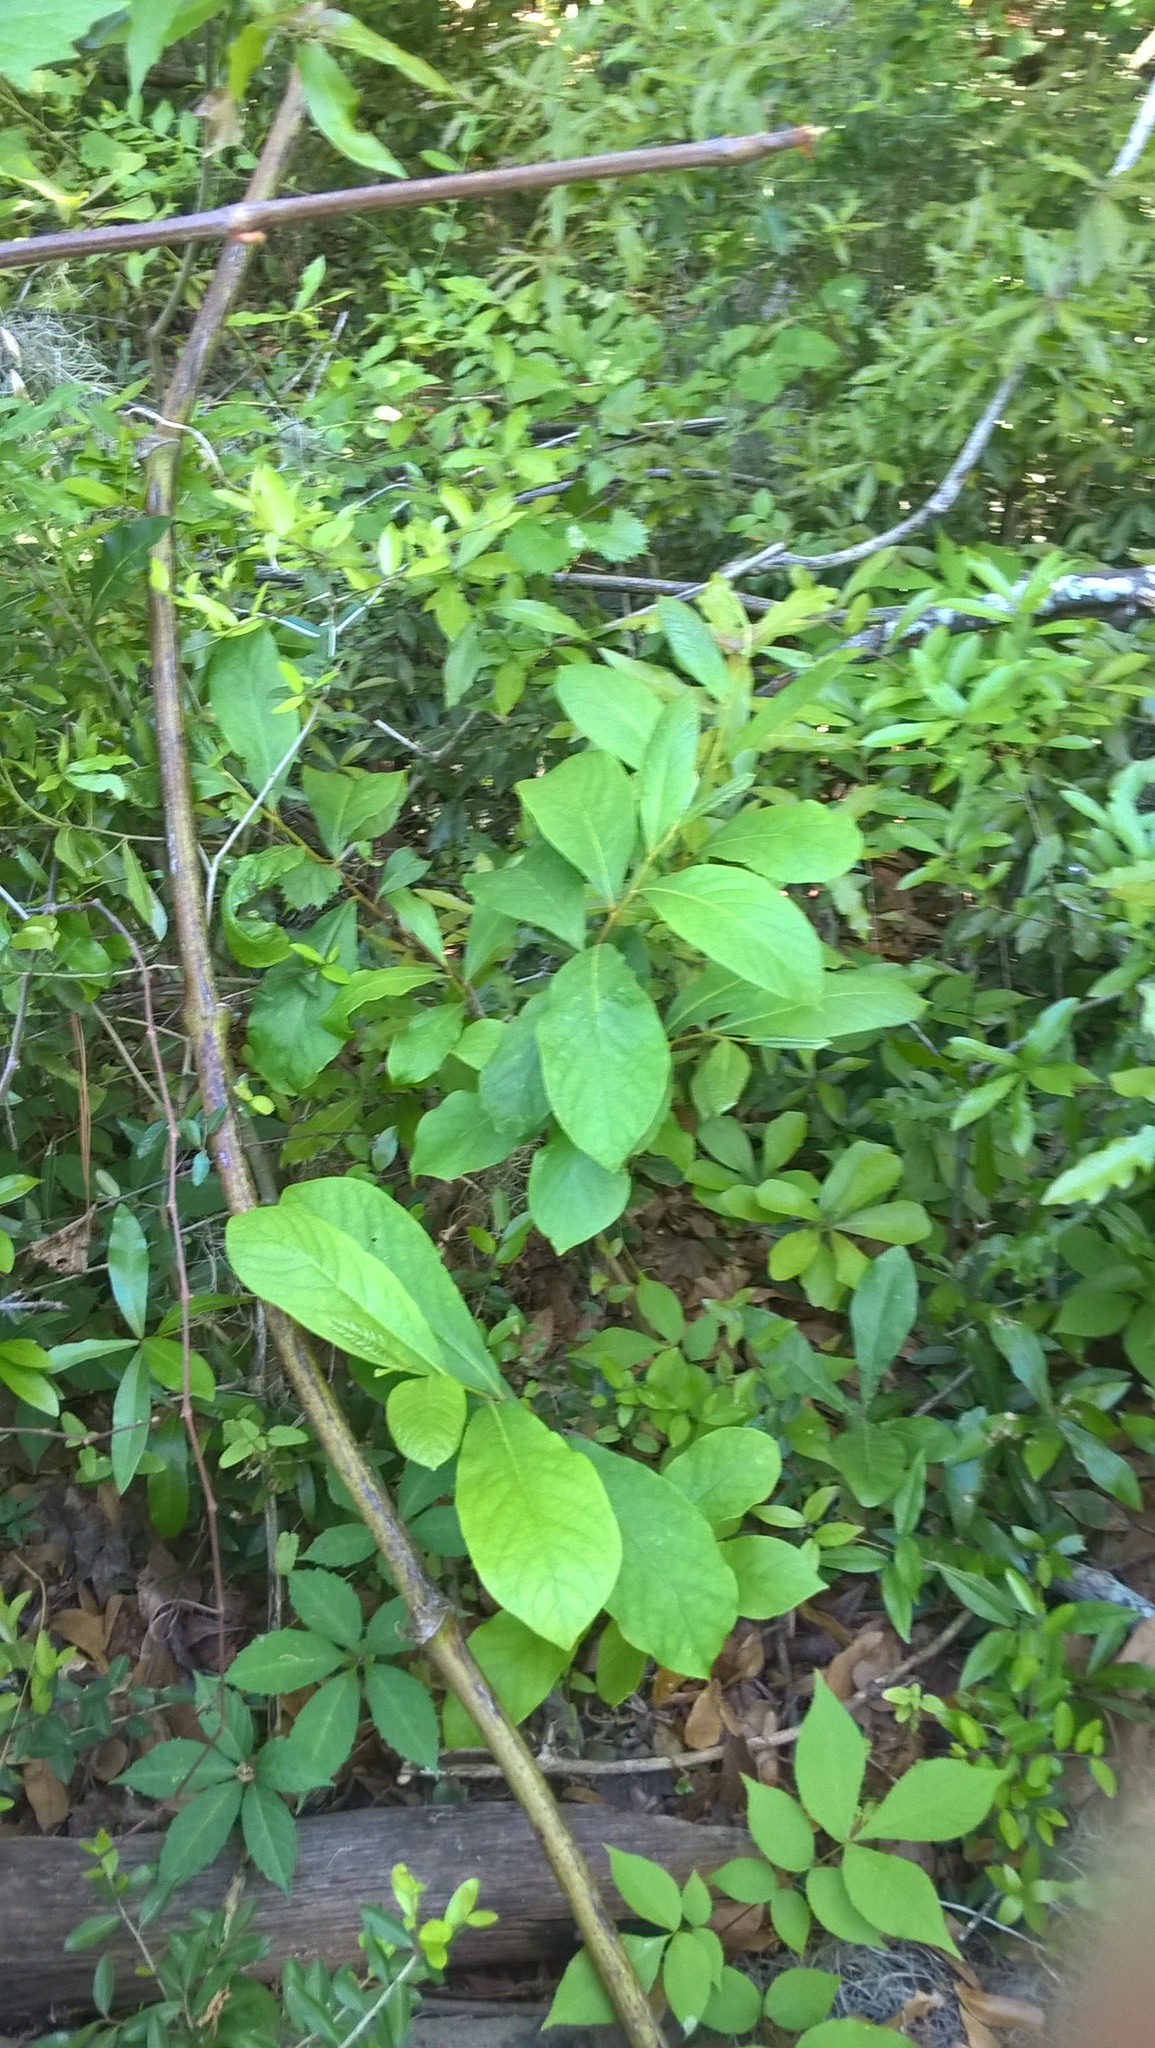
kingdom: Plantae
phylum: Tracheophyta
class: Magnoliopsida
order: Magnoliales
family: Annonaceae
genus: Asimina
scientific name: Asimina parviflora
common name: Dwarf pawpaw
